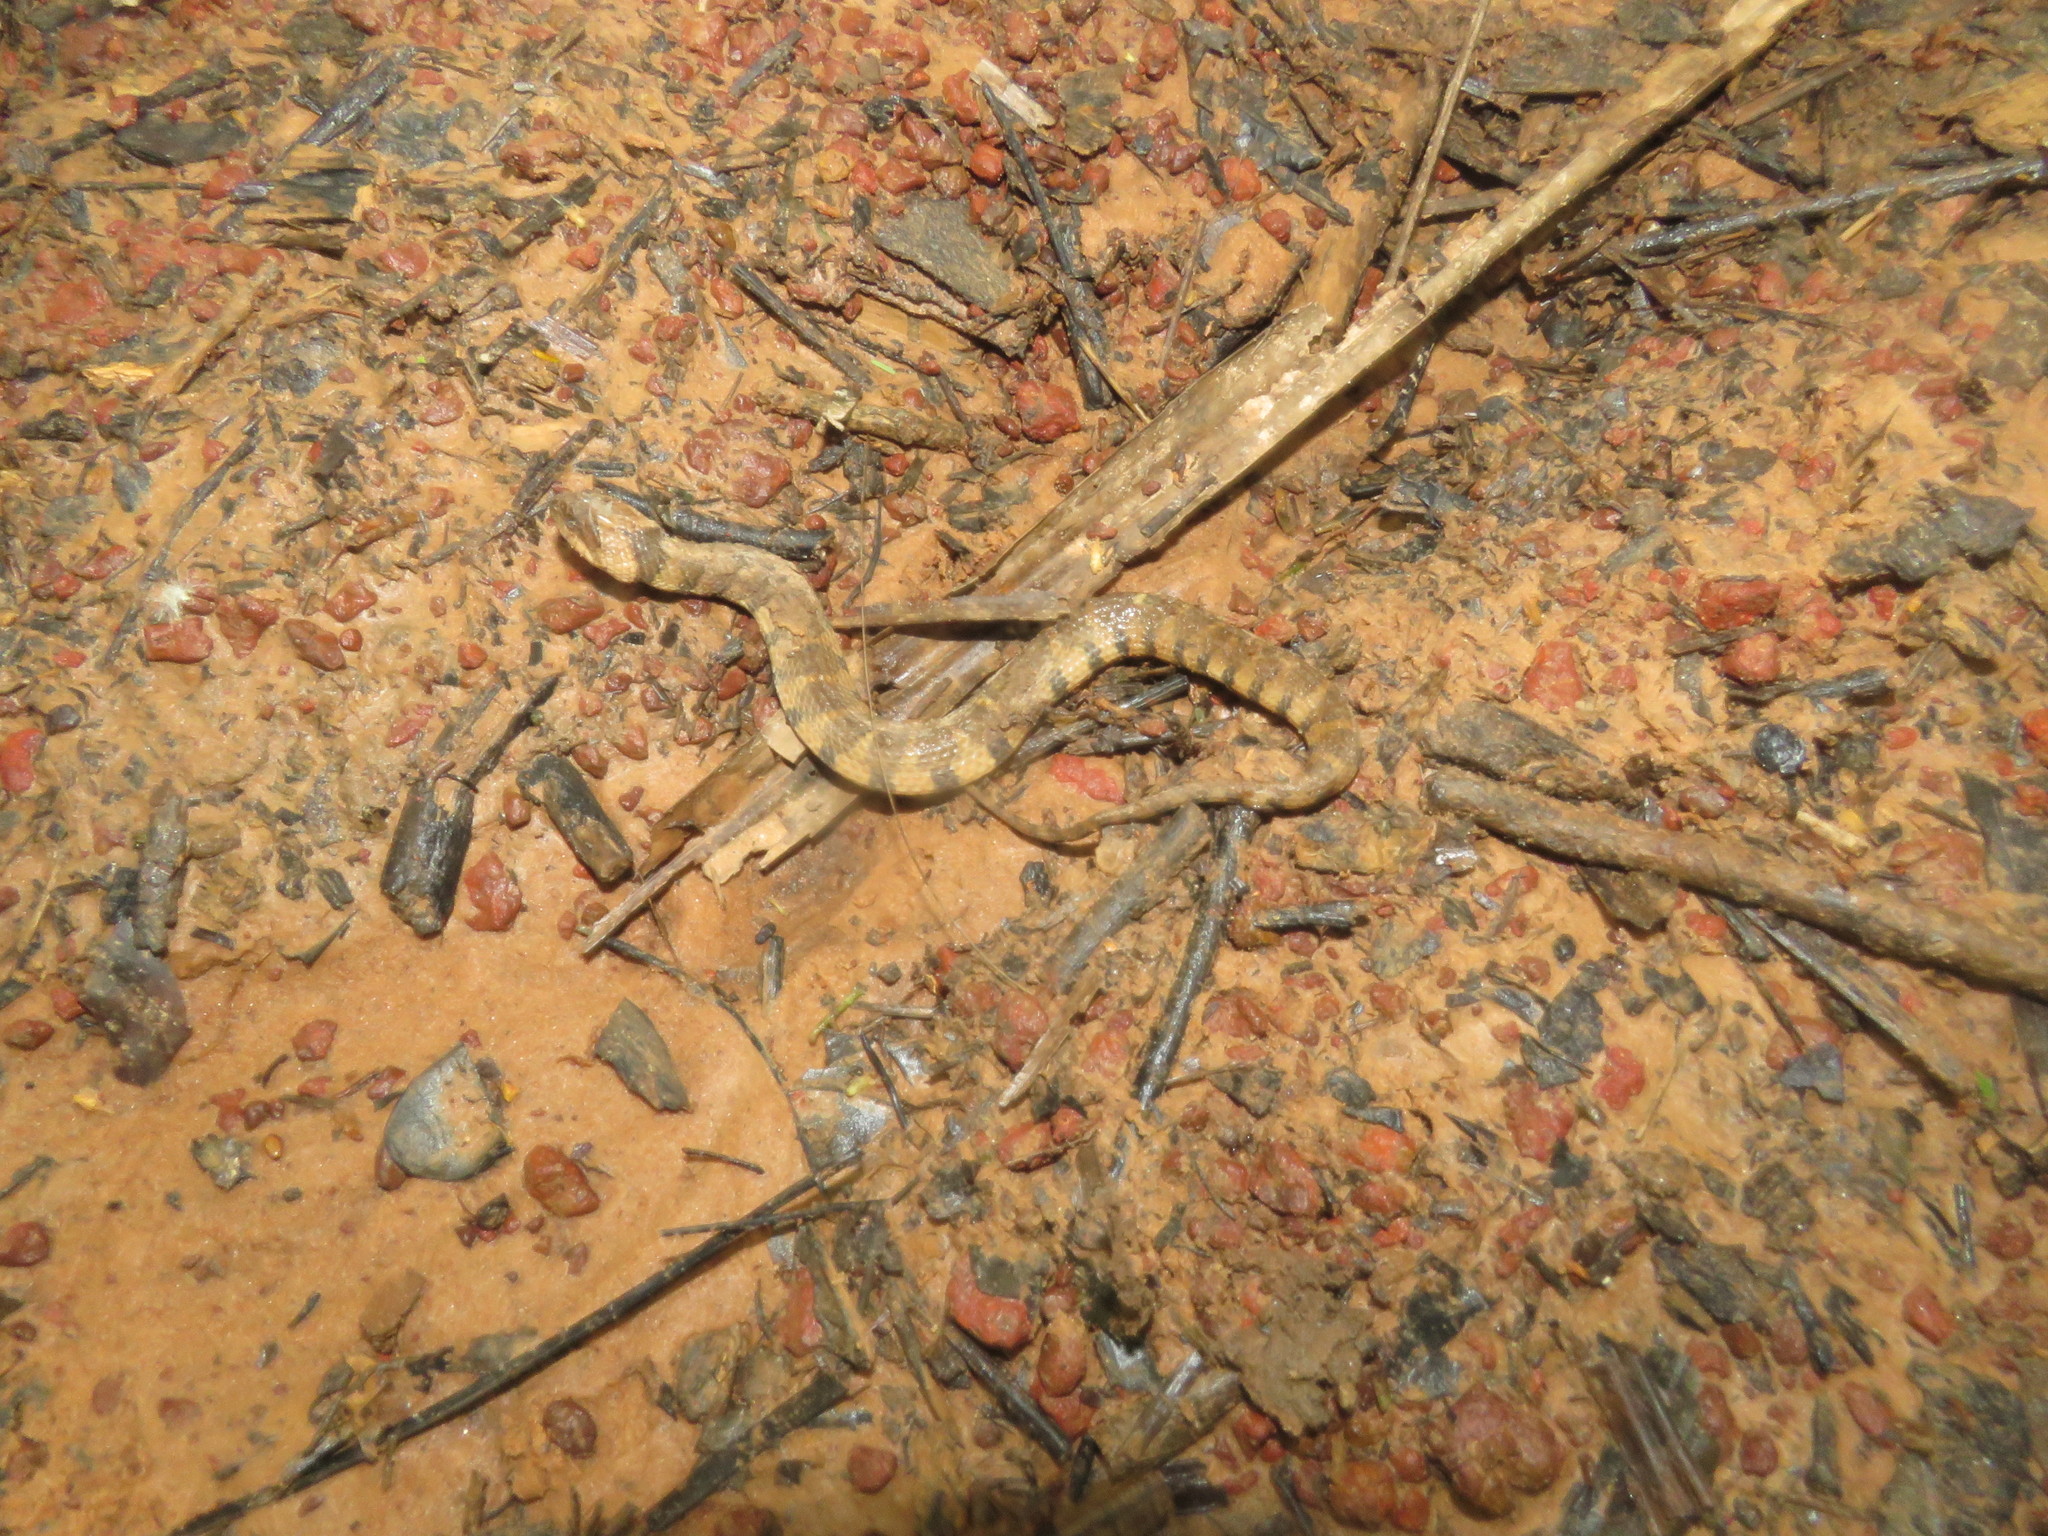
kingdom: Animalia
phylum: Chordata
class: Squamata
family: Colubridae
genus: Helicops
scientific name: Helicops angulatus
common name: Mountain keelback
